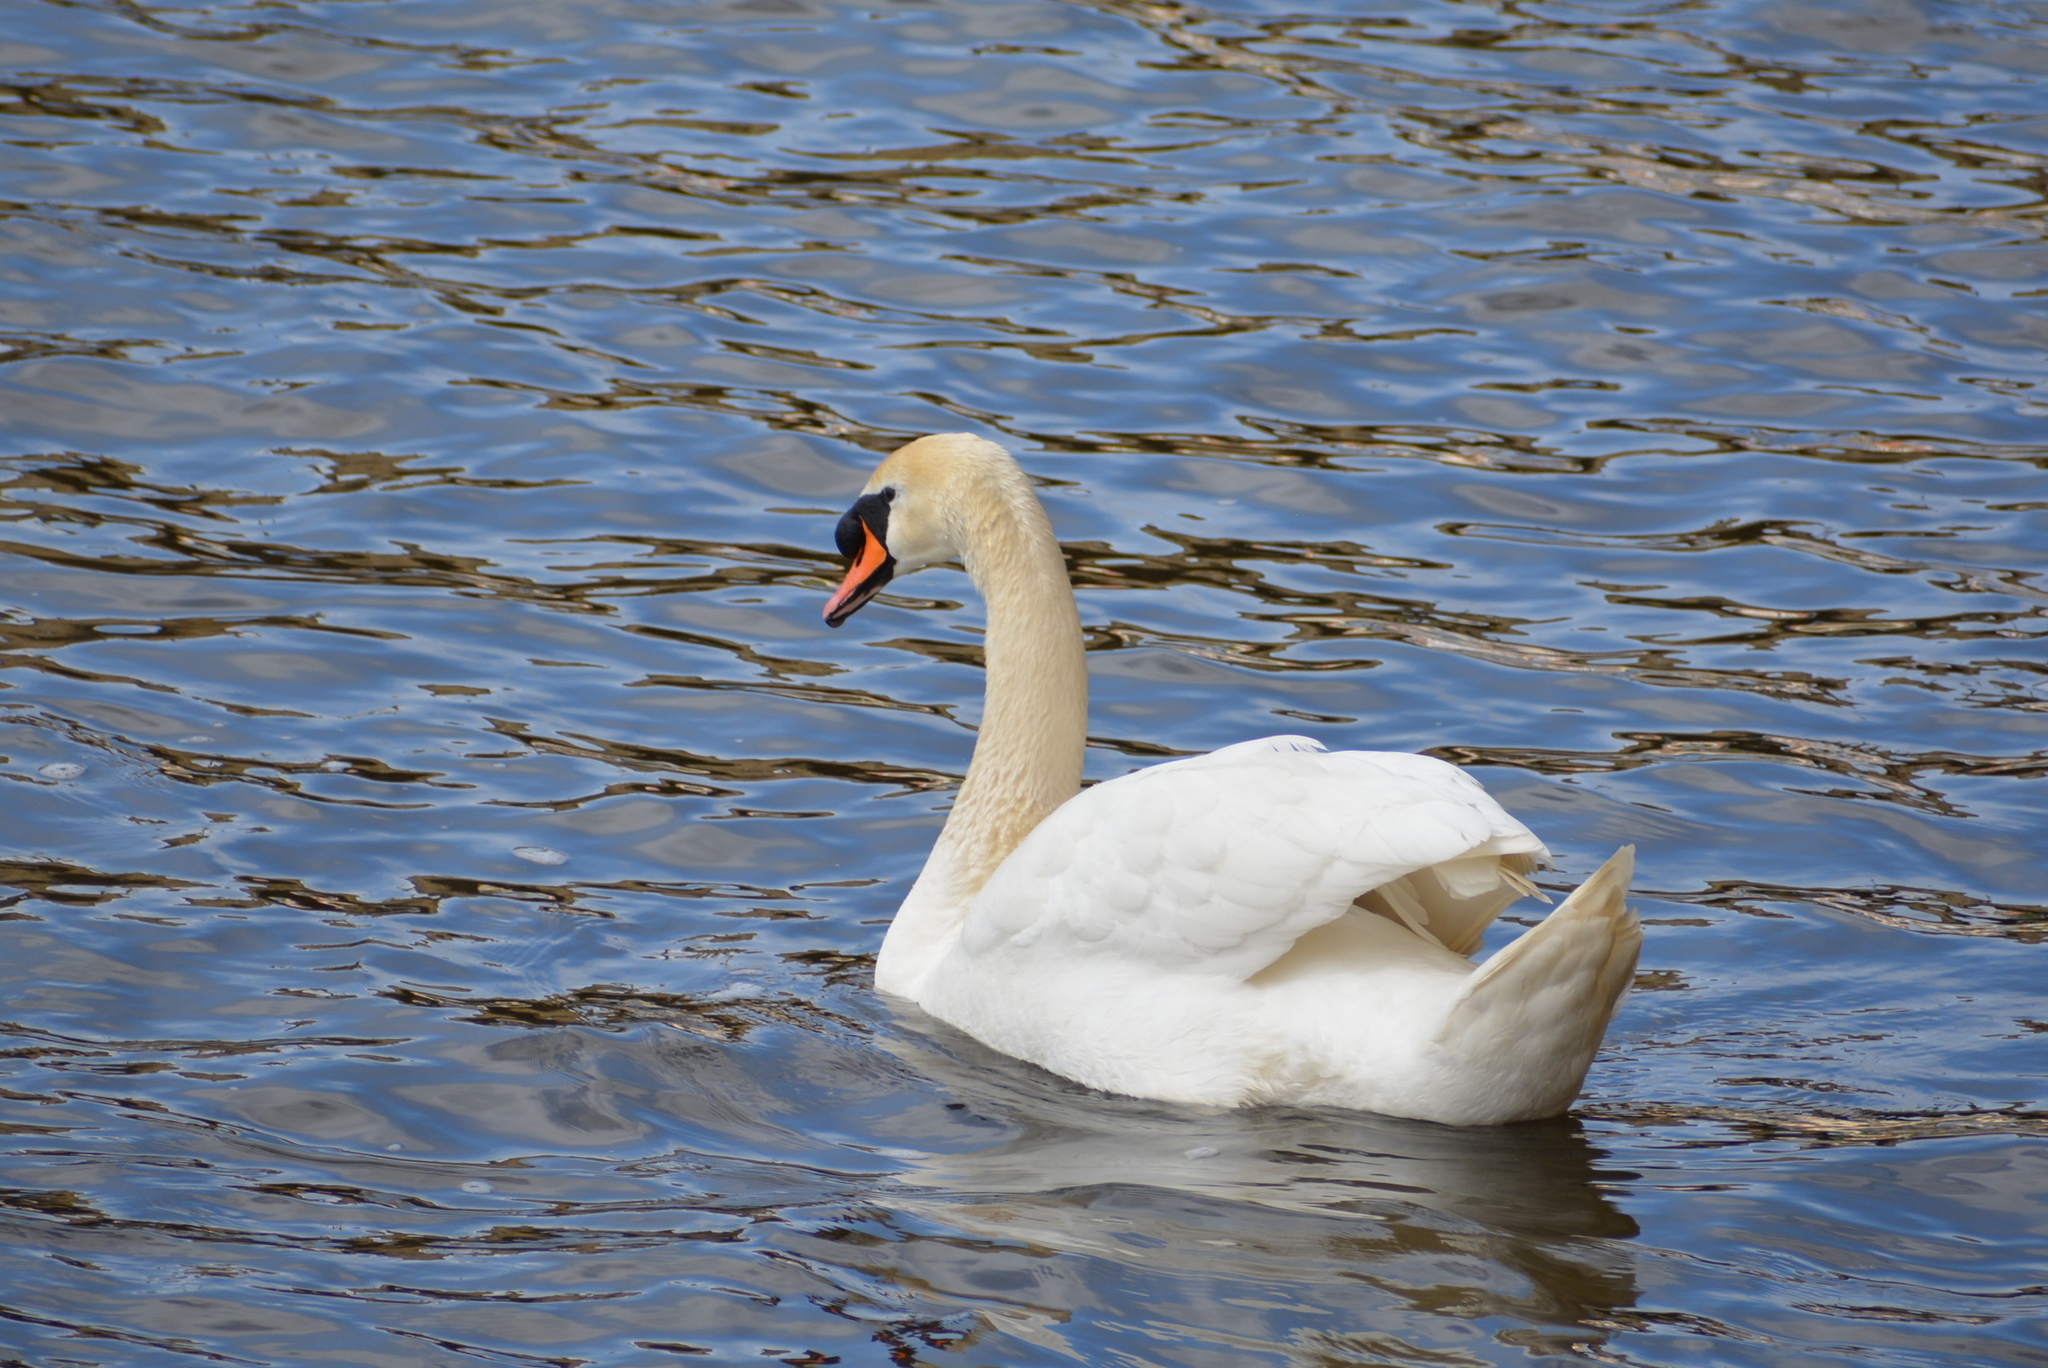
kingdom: Animalia
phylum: Chordata
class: Aves
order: Anseriformes
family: Anatidae
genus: Cygnus
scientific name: Cygnus olor
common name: Mute swan
